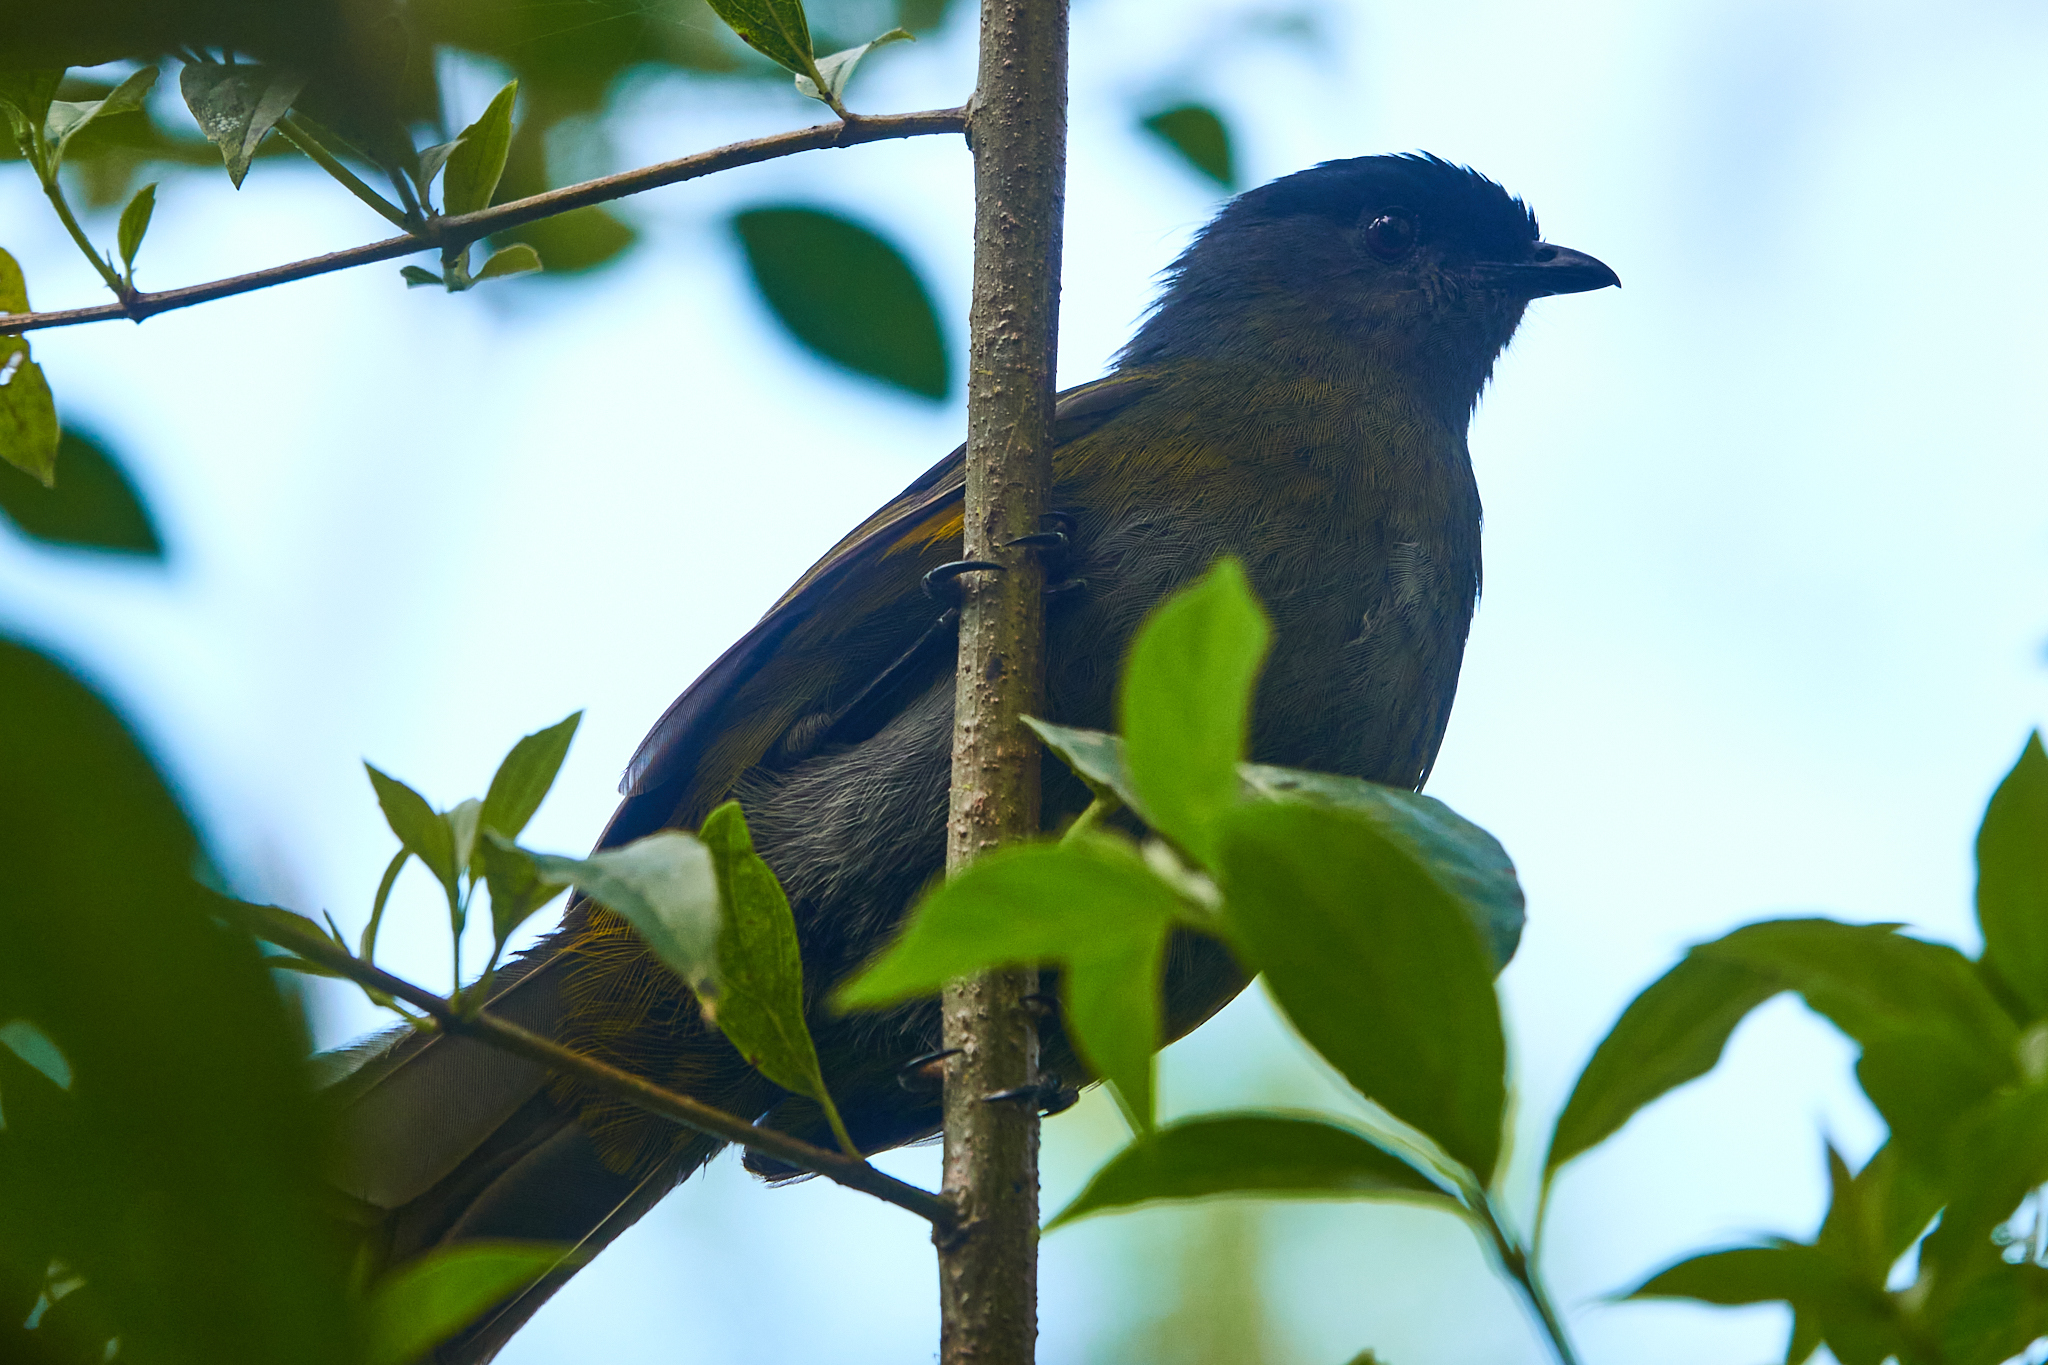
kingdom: Animalia
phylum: Chordata
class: Aves
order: Passeriformes
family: Ptilogonatidae
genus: Phainoptila
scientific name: Phainoptila melanoxantha
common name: Black-and-yellow phainoptila
